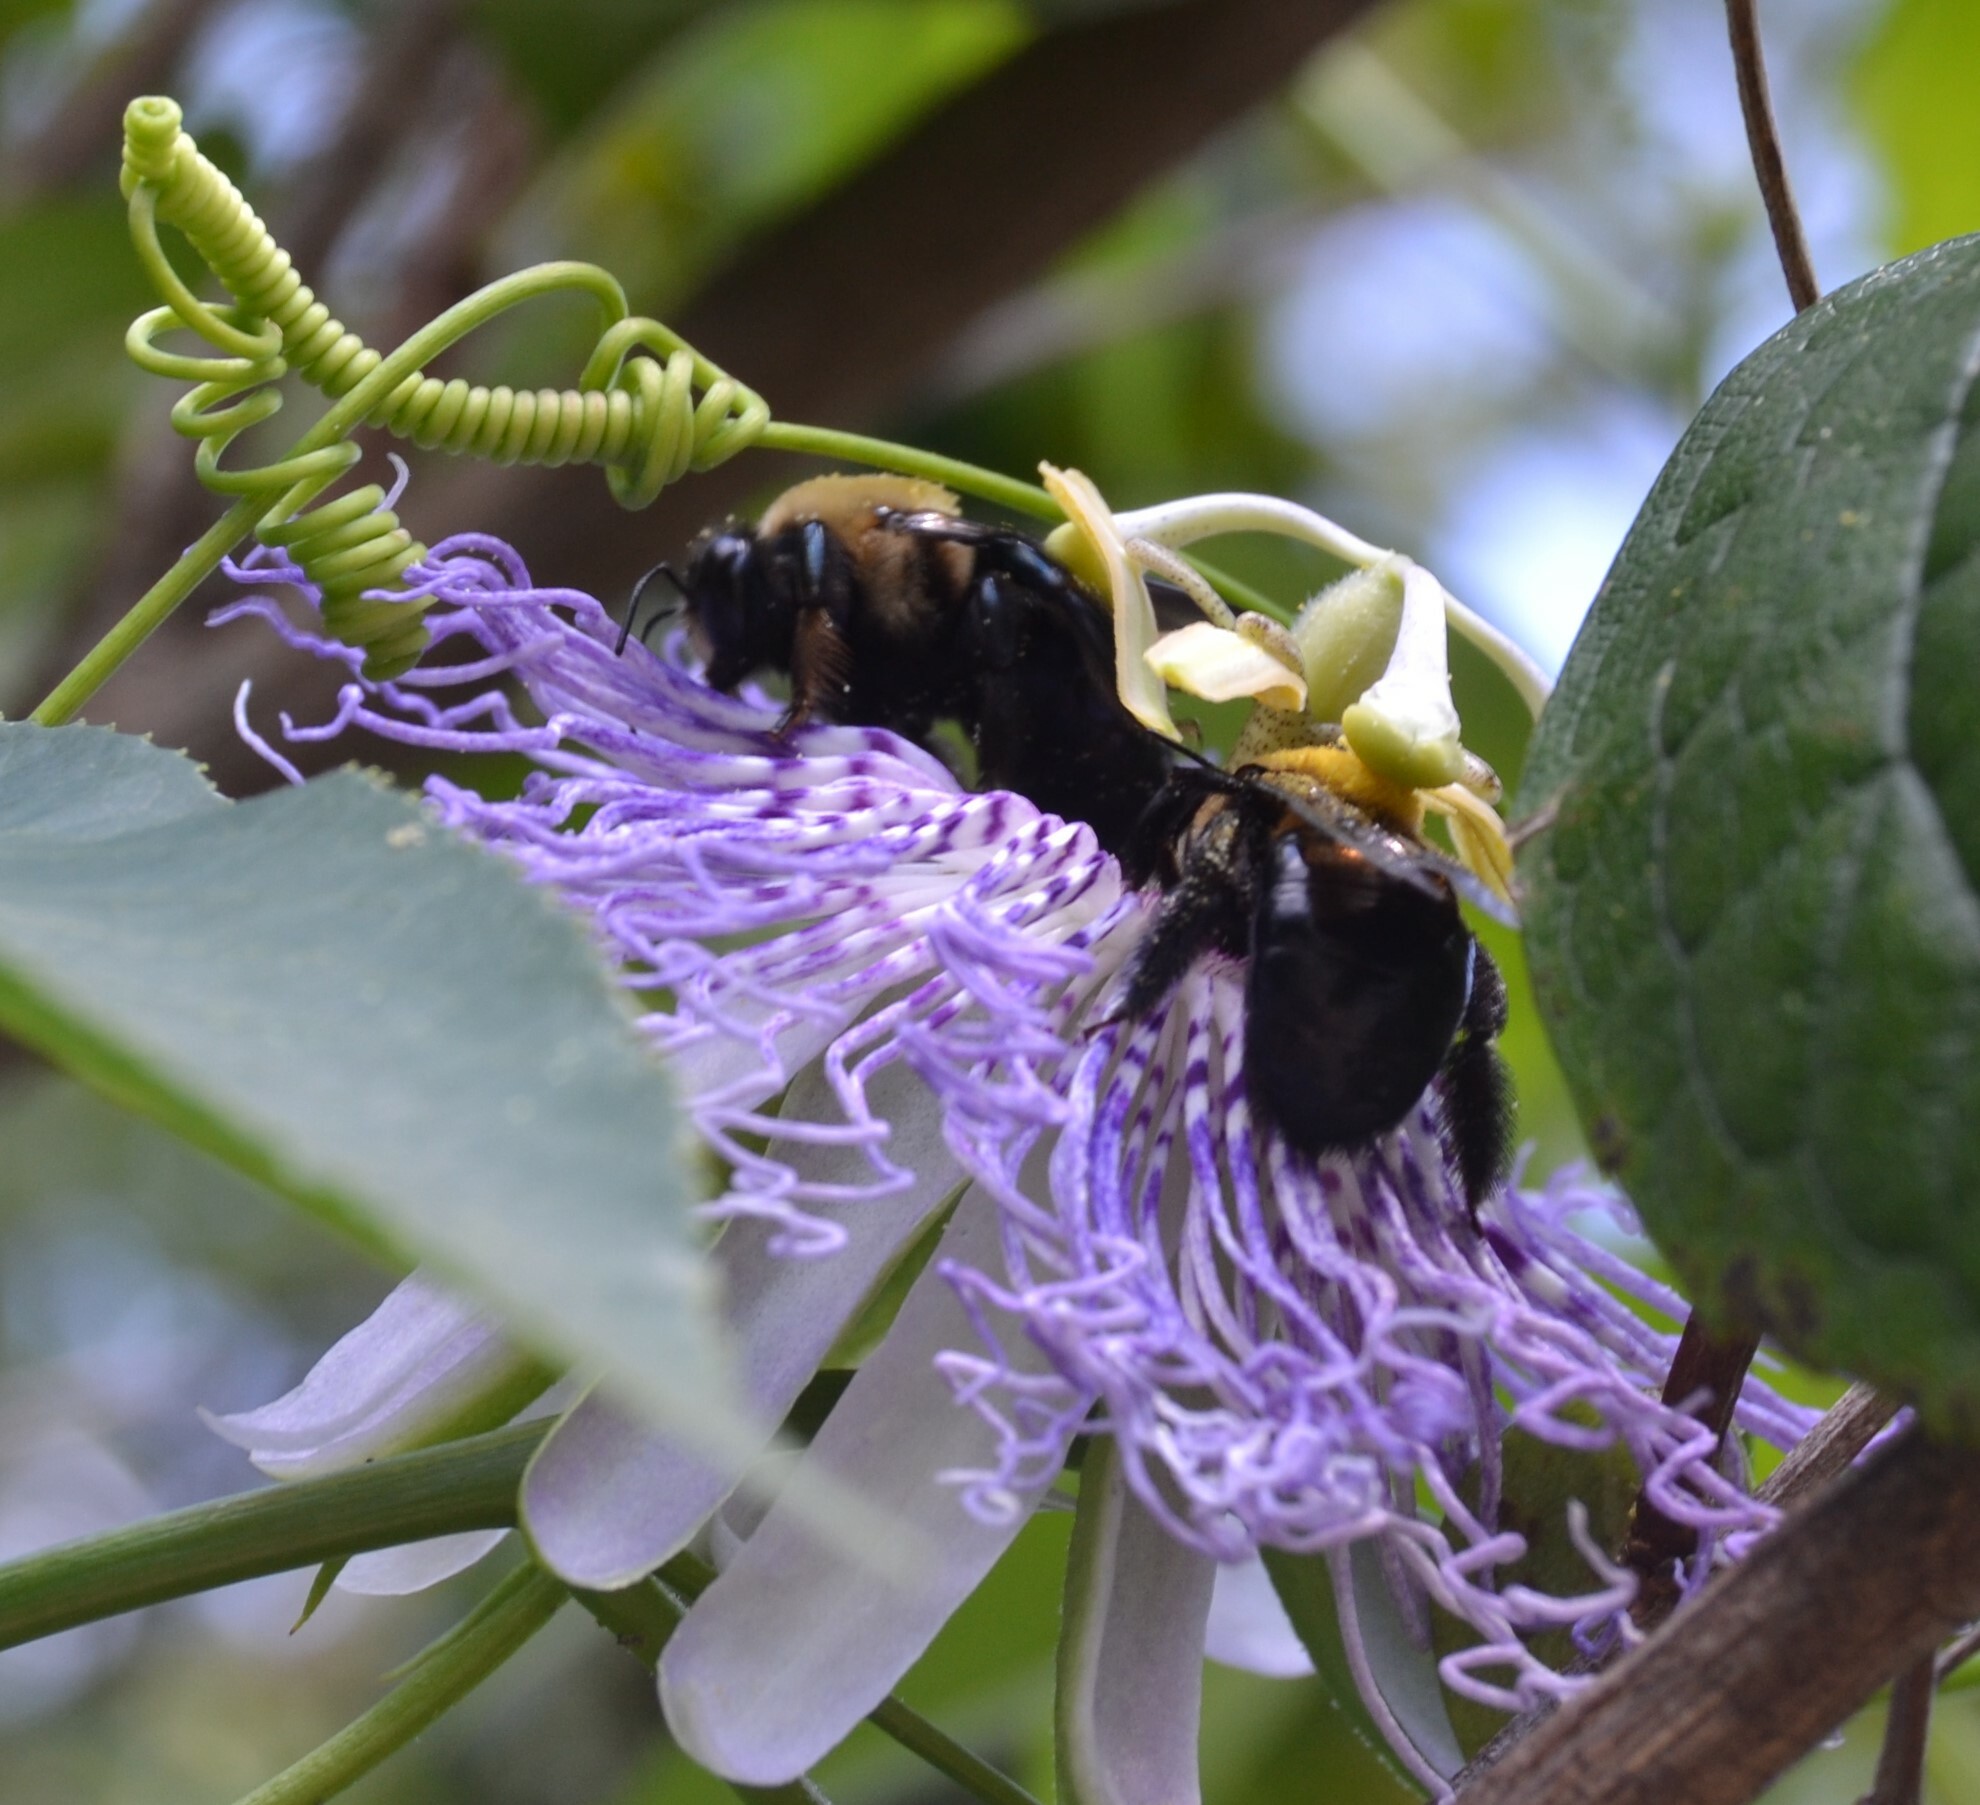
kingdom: Animalia
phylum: Arthropoda
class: Insecta
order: Hymenoptera
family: Apidae
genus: Xylocopa
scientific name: Xylocopa virginica
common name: Carpenter bee
